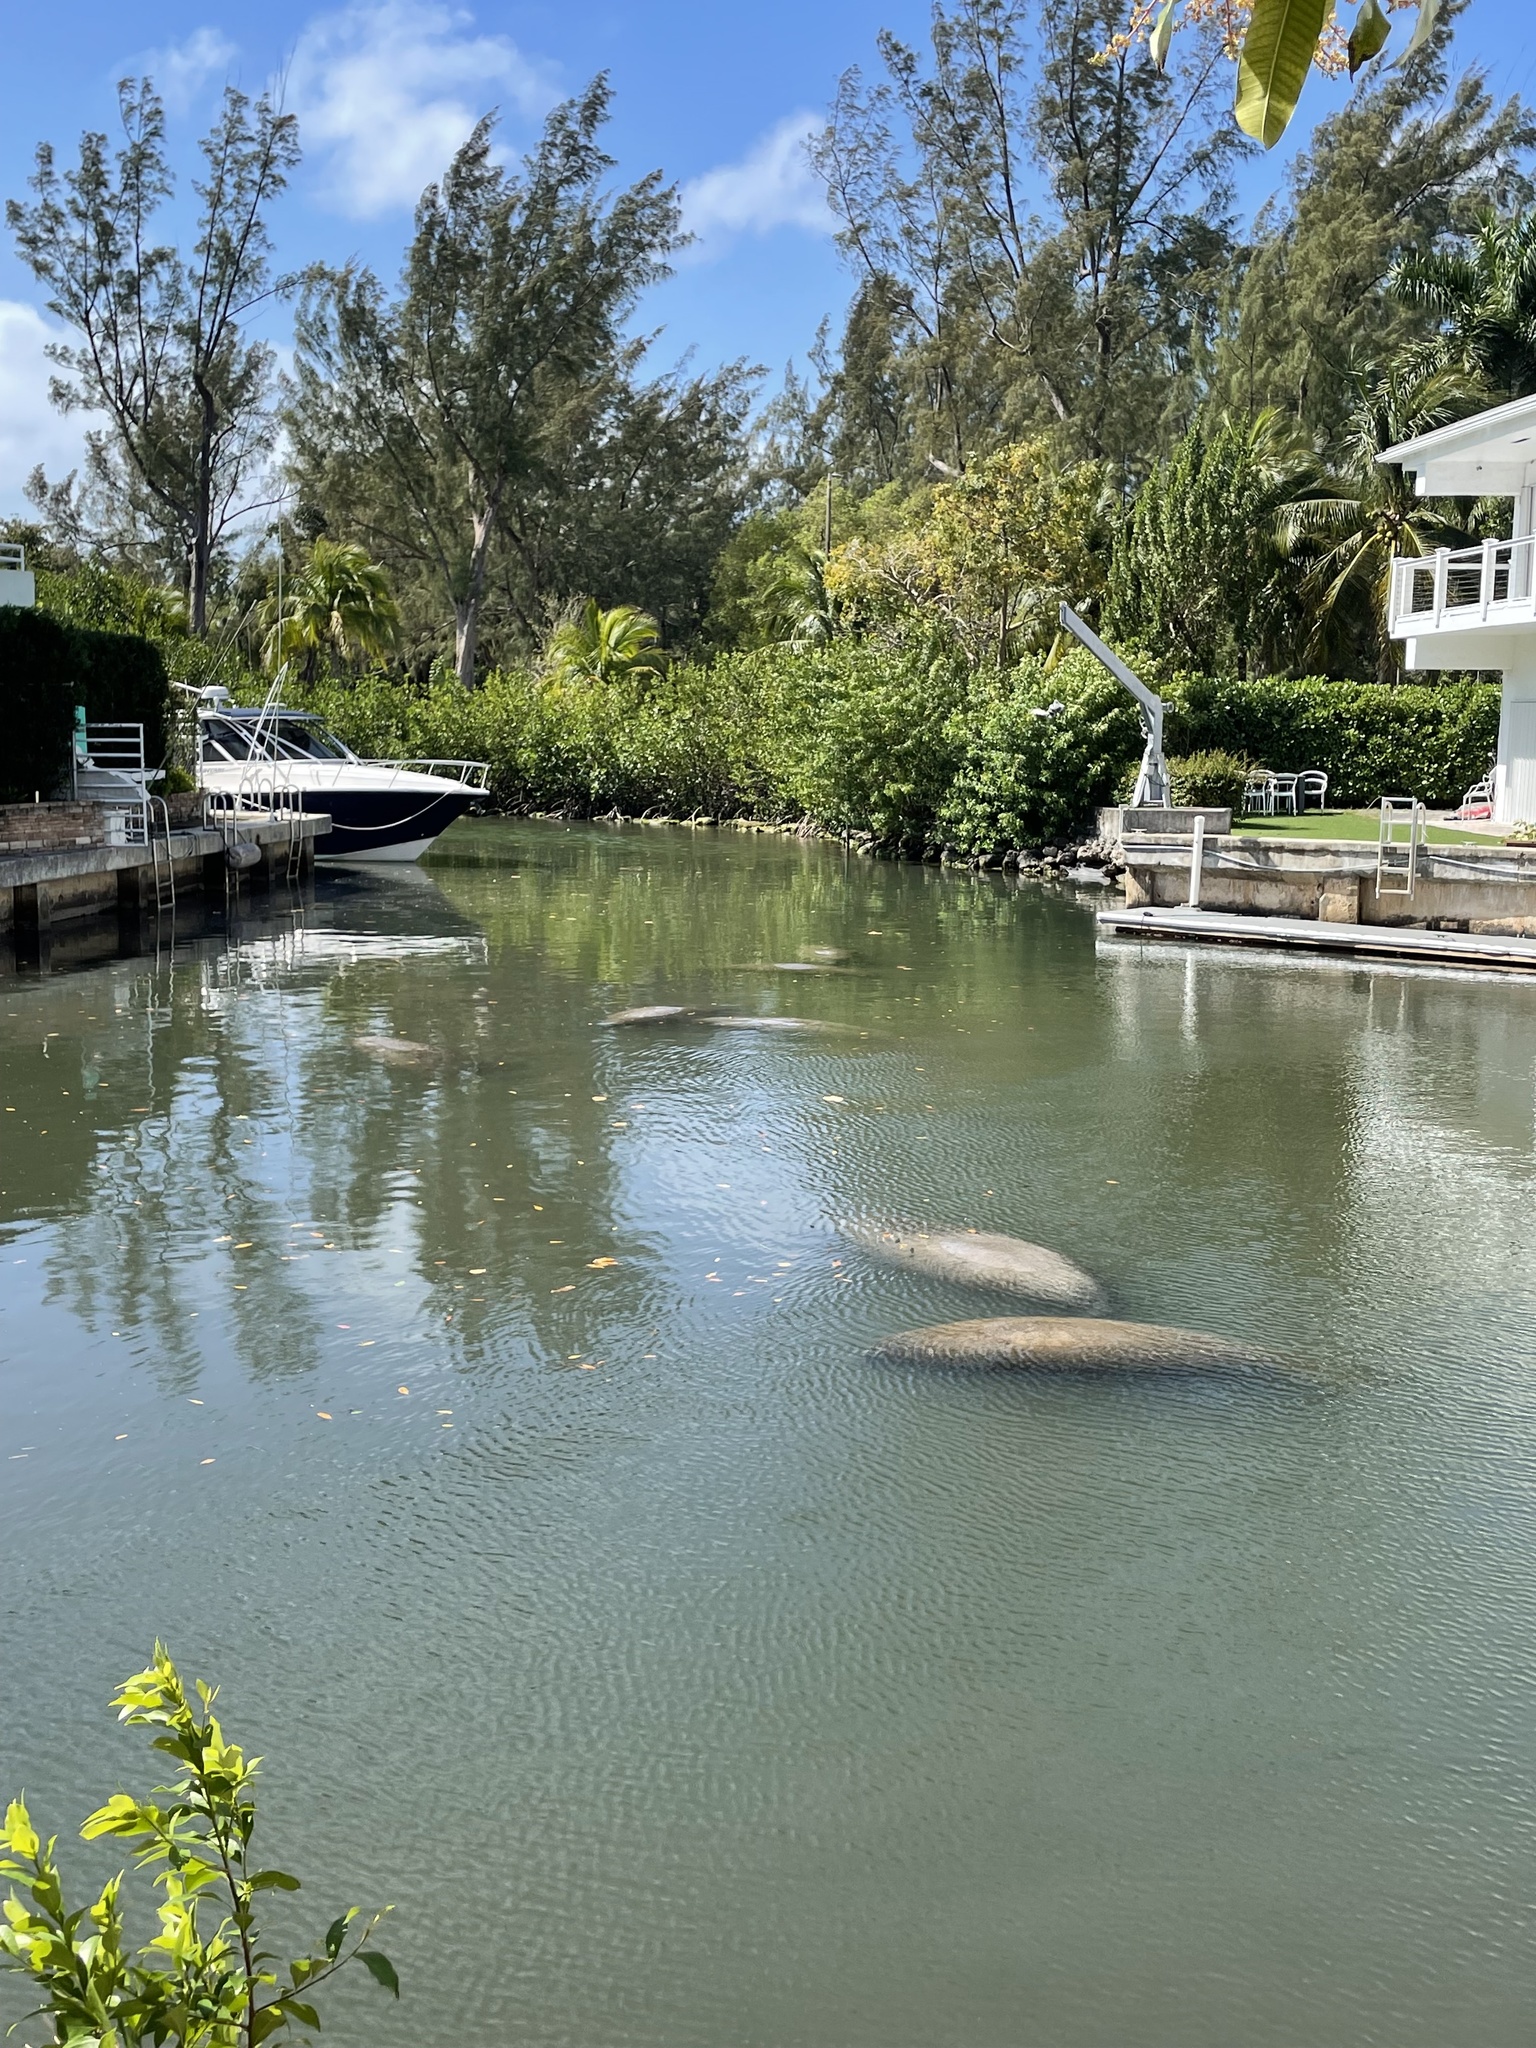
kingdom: Animalia
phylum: Chordata
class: Mammalia
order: Sirenia
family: Trichechidae
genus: Trichechus
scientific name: Trichechus manatus
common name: West indian manatee
